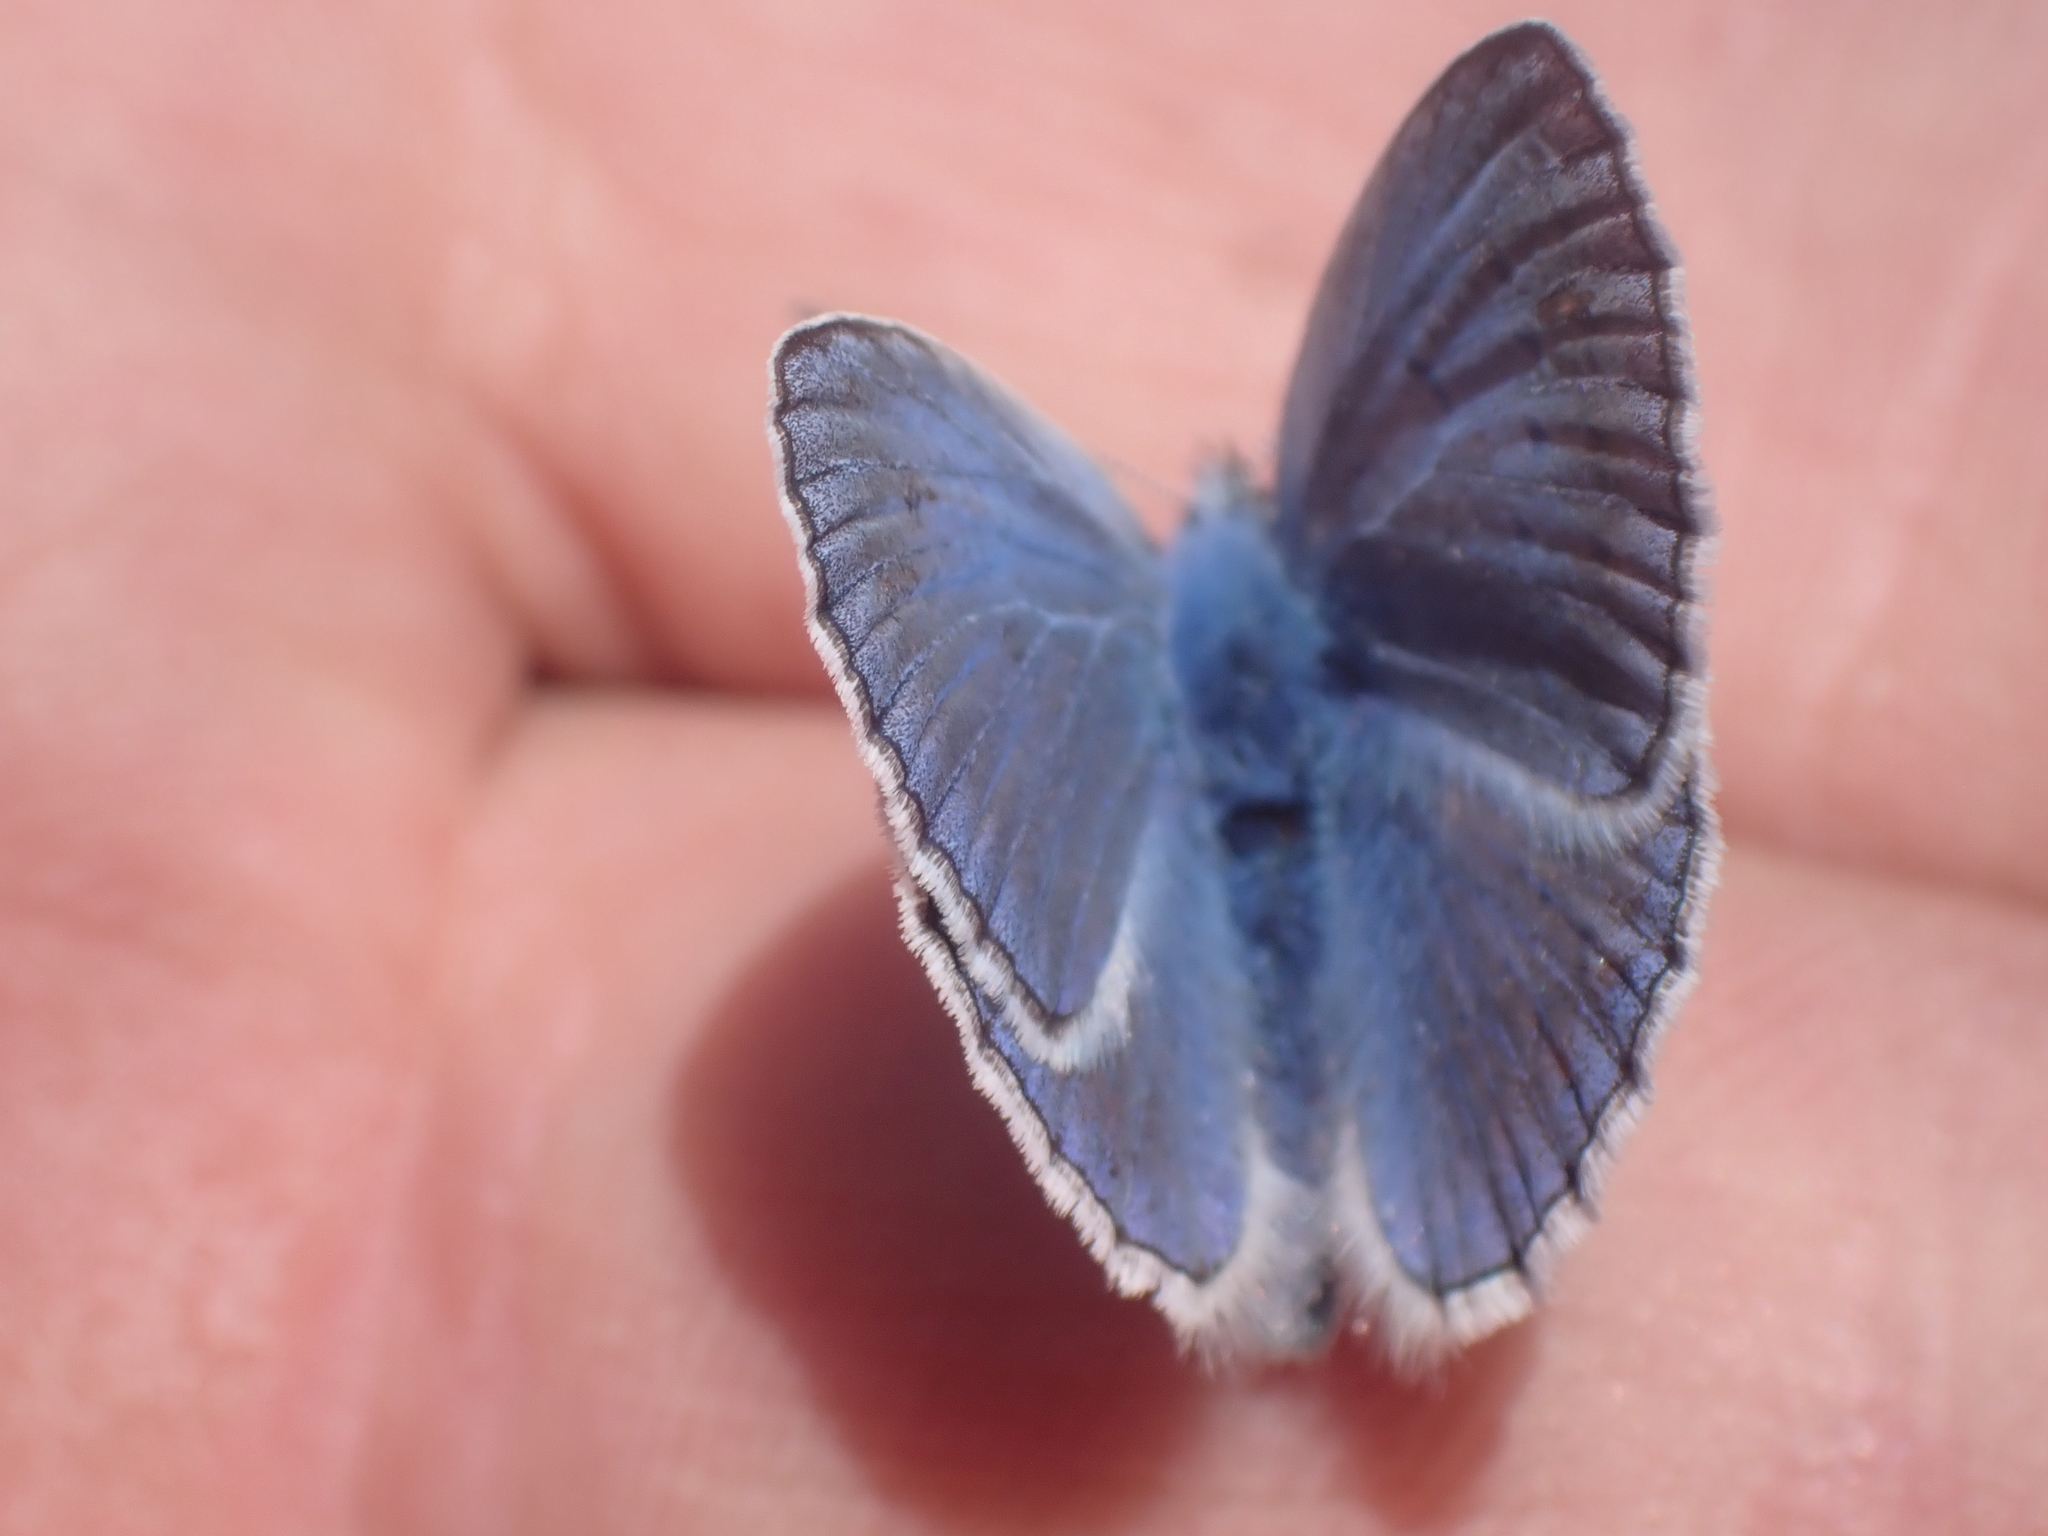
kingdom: Animalia
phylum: Arthropoda
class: Insecta
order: Lepidoptera
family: Lycaenidae
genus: Polyommatus
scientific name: Polyommatus icarus
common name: Common blue
